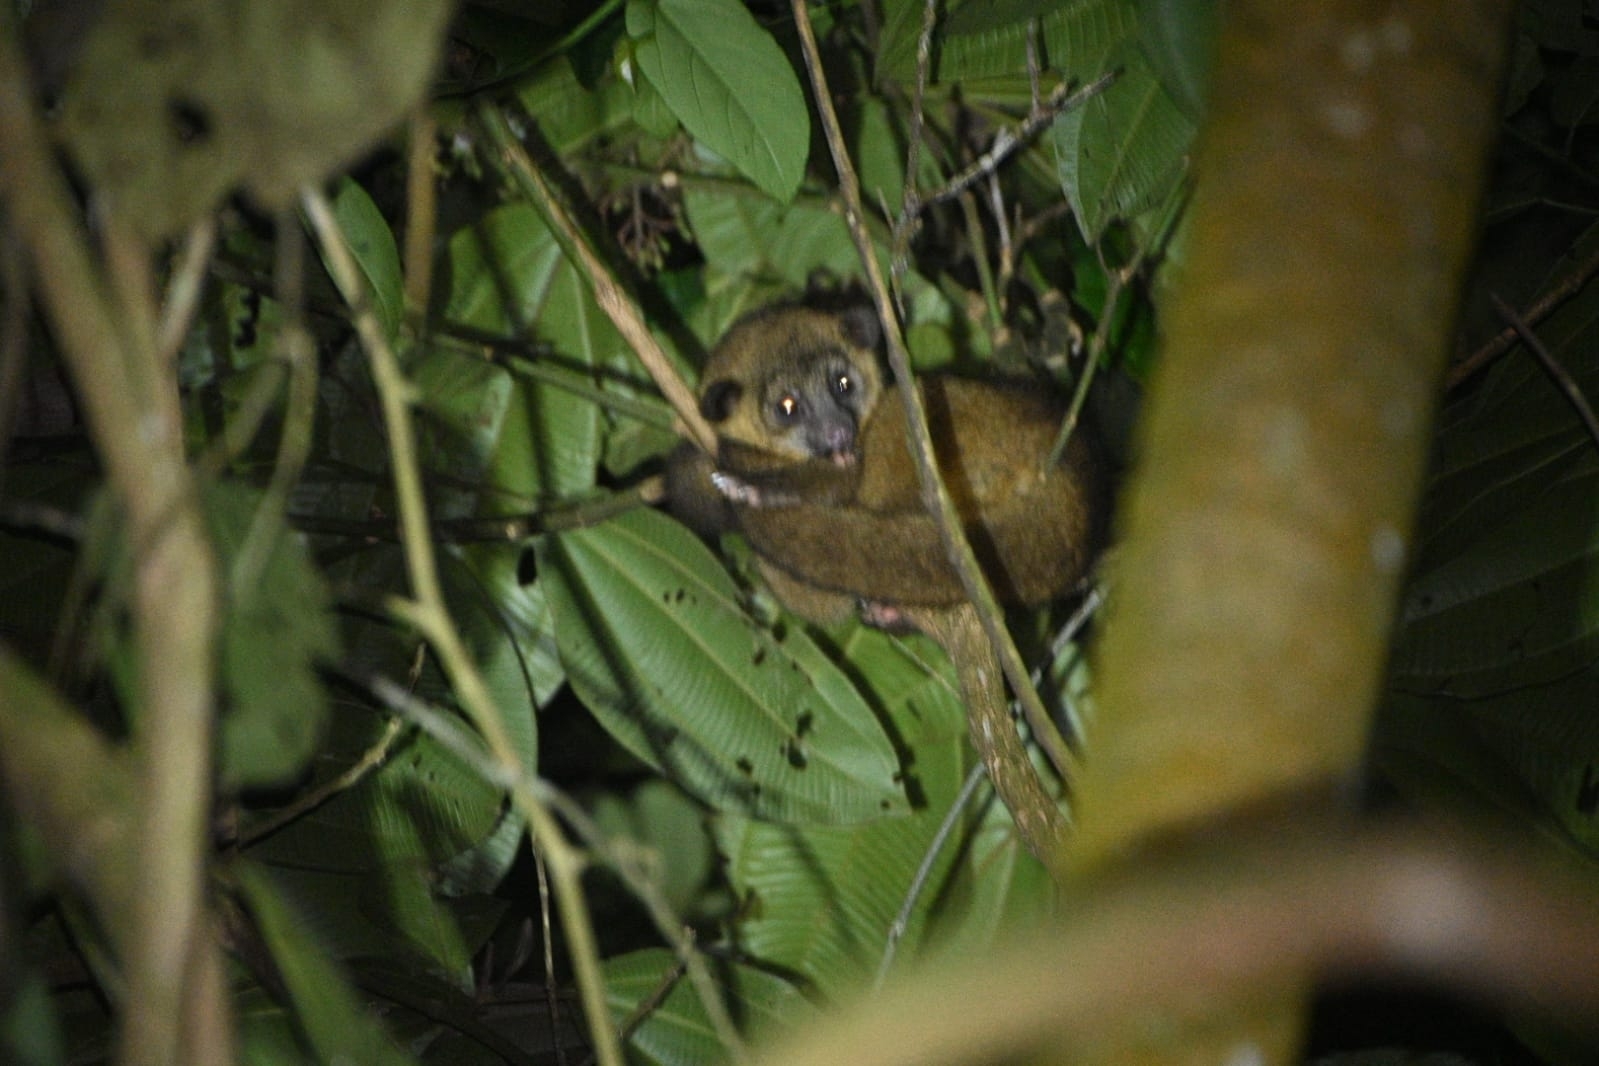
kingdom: Animalia
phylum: Chordata
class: Mammalia
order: Carnivora
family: Procyonidae
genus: Potos
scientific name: Potos flavus
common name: Kinkajou
